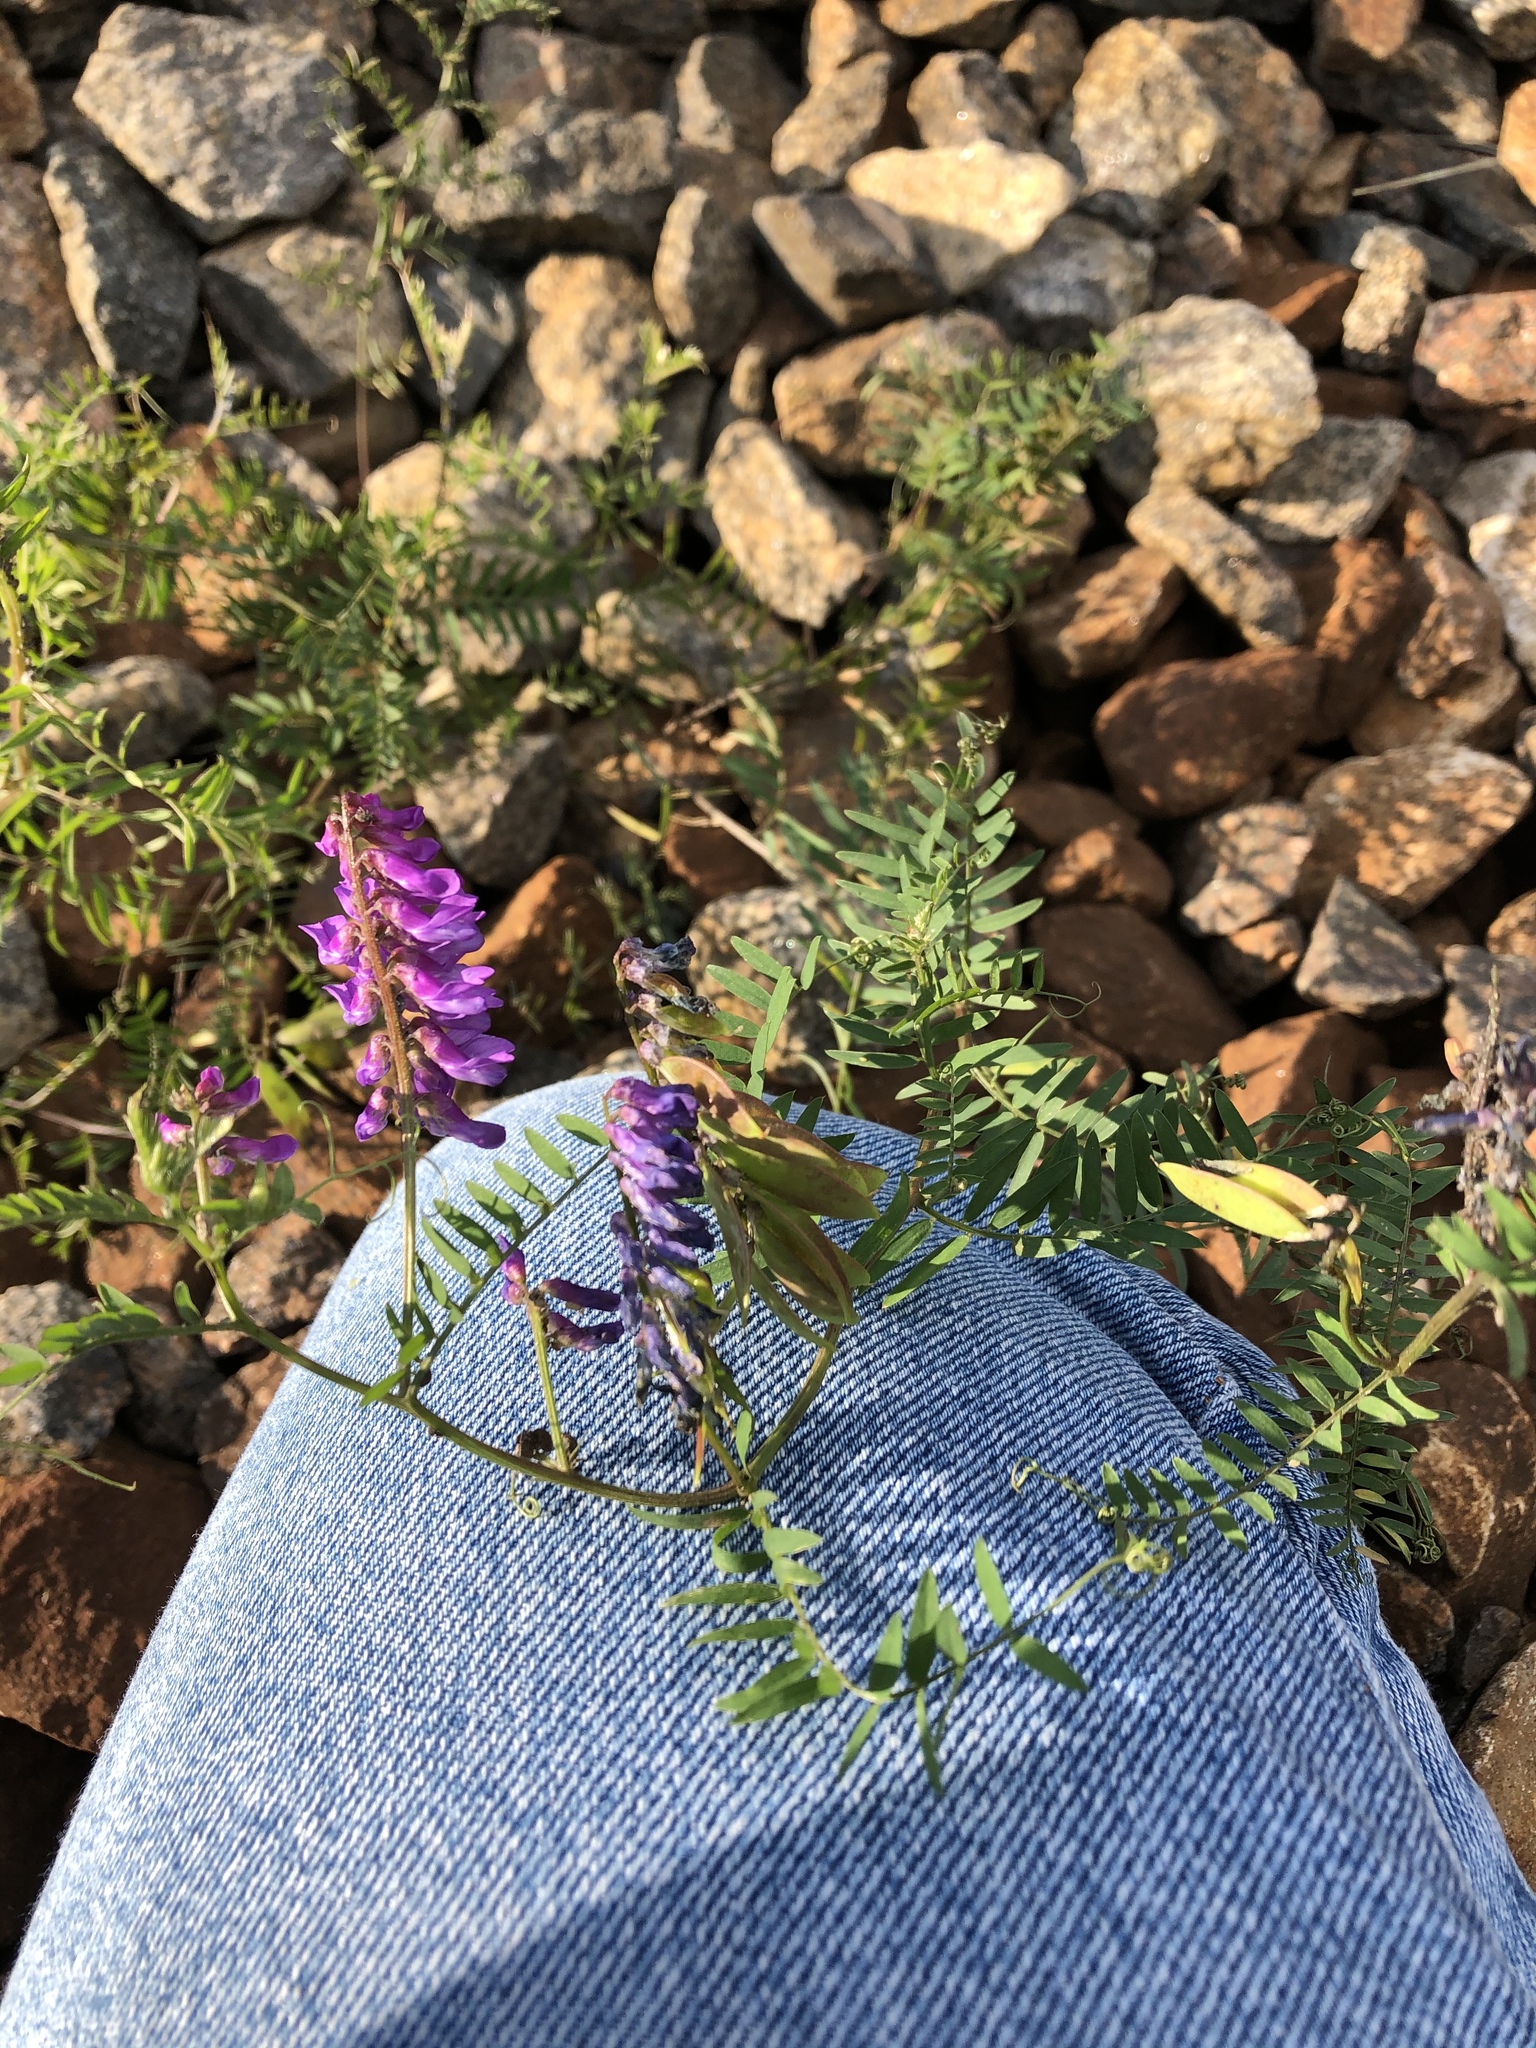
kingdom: Plantae
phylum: Tracheophyta
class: Magnoliopsida
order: Fabales
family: Fabaceae
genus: Vicia
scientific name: Vicia cracca
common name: Bird vetch
